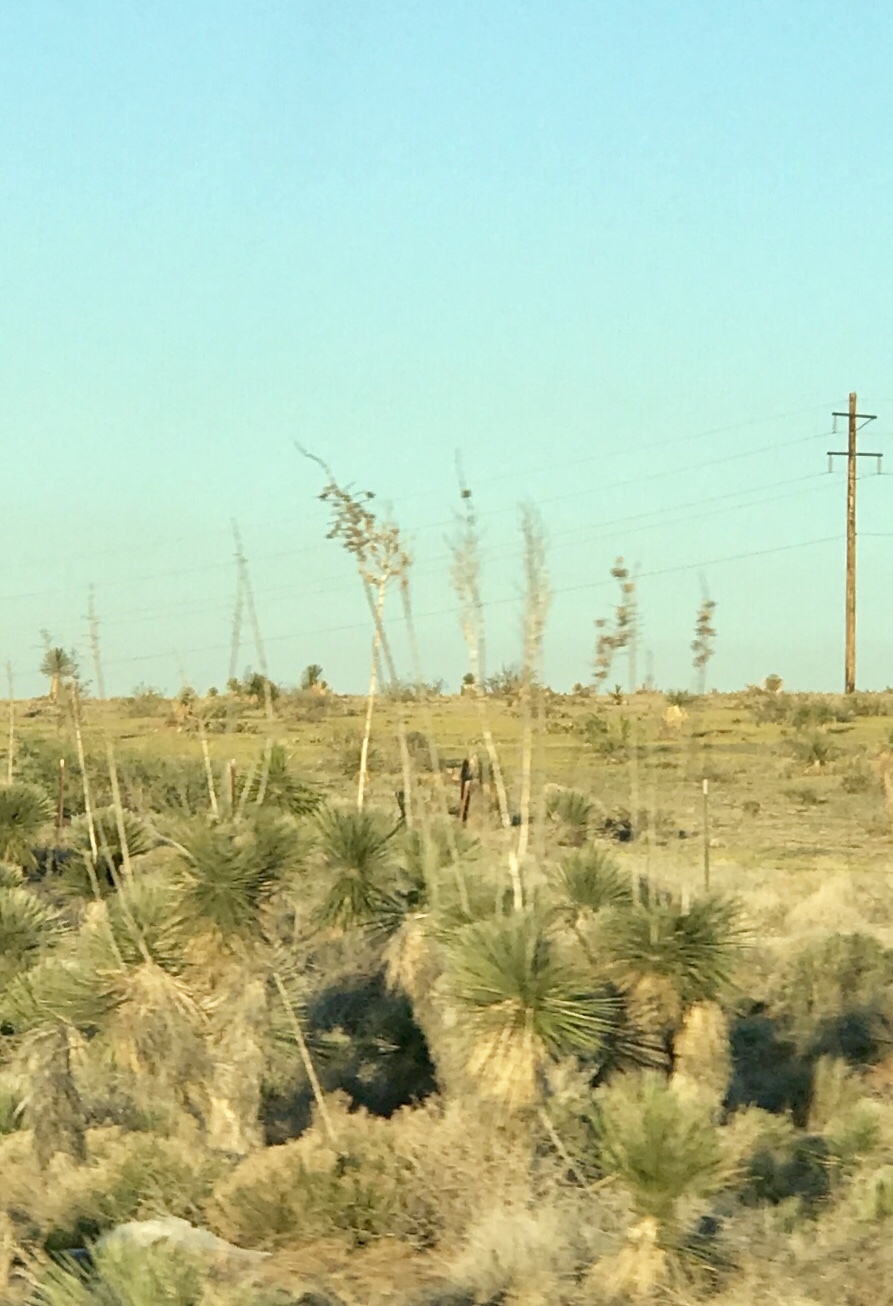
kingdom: Plantae
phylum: Tracheophyta
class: Liliopsida
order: Asparagales
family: Asparagaceae
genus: Yucca
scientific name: Yucca elata
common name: Palmella
